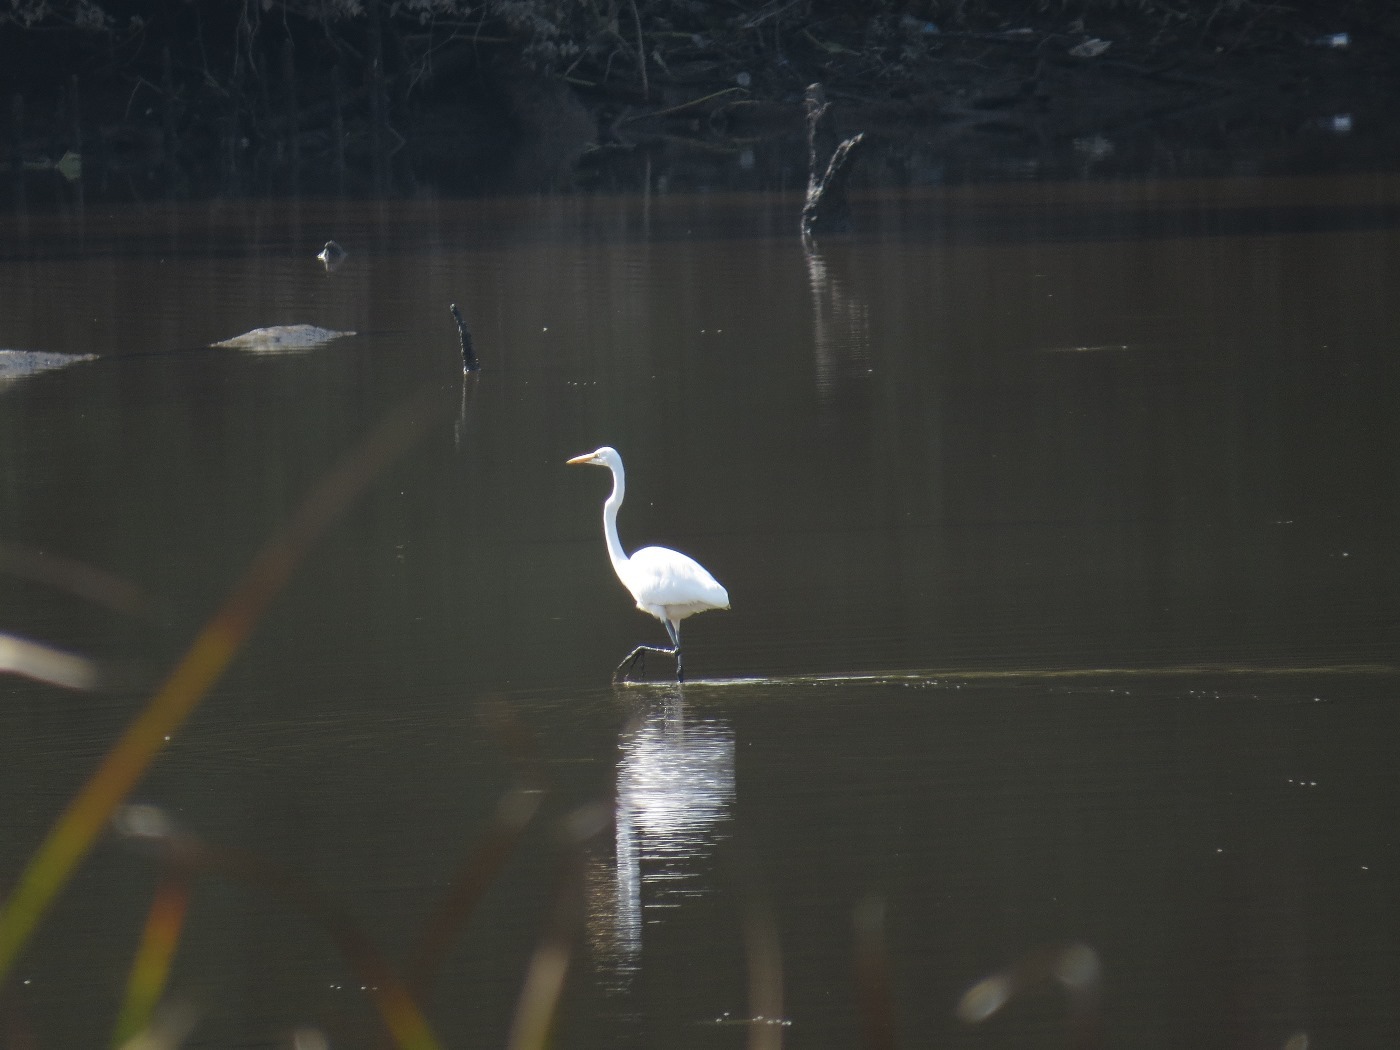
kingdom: Animalia
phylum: Chordata
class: Aves
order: Pelecaniformes
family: Ardeidae
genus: Ardea
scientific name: Ardea alba
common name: Great egret
